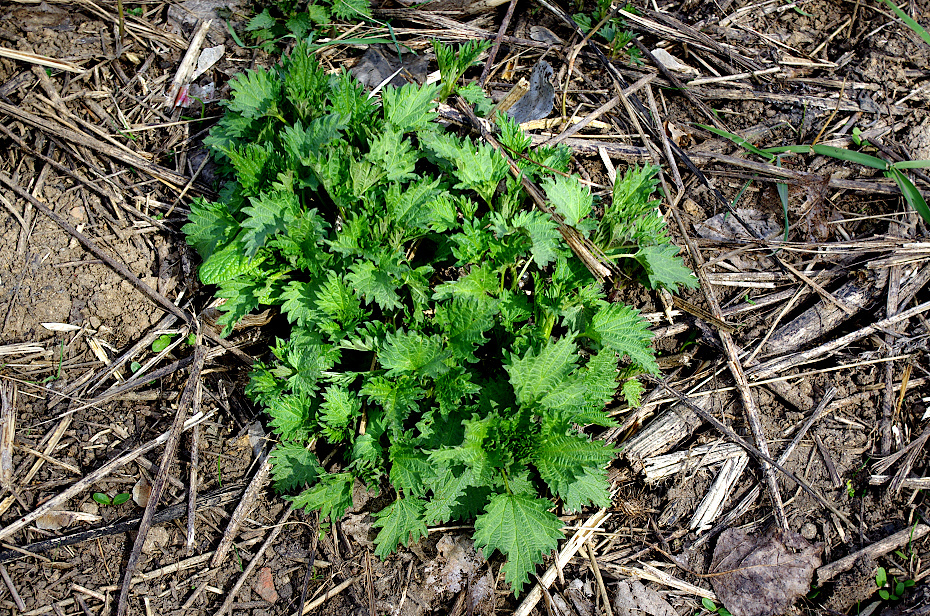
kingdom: Plantae
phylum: Tracheophyta
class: Magnoliopsida
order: Rosales
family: Urticaceae
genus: Urtica
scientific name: Urtica dioica
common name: Common nettle
